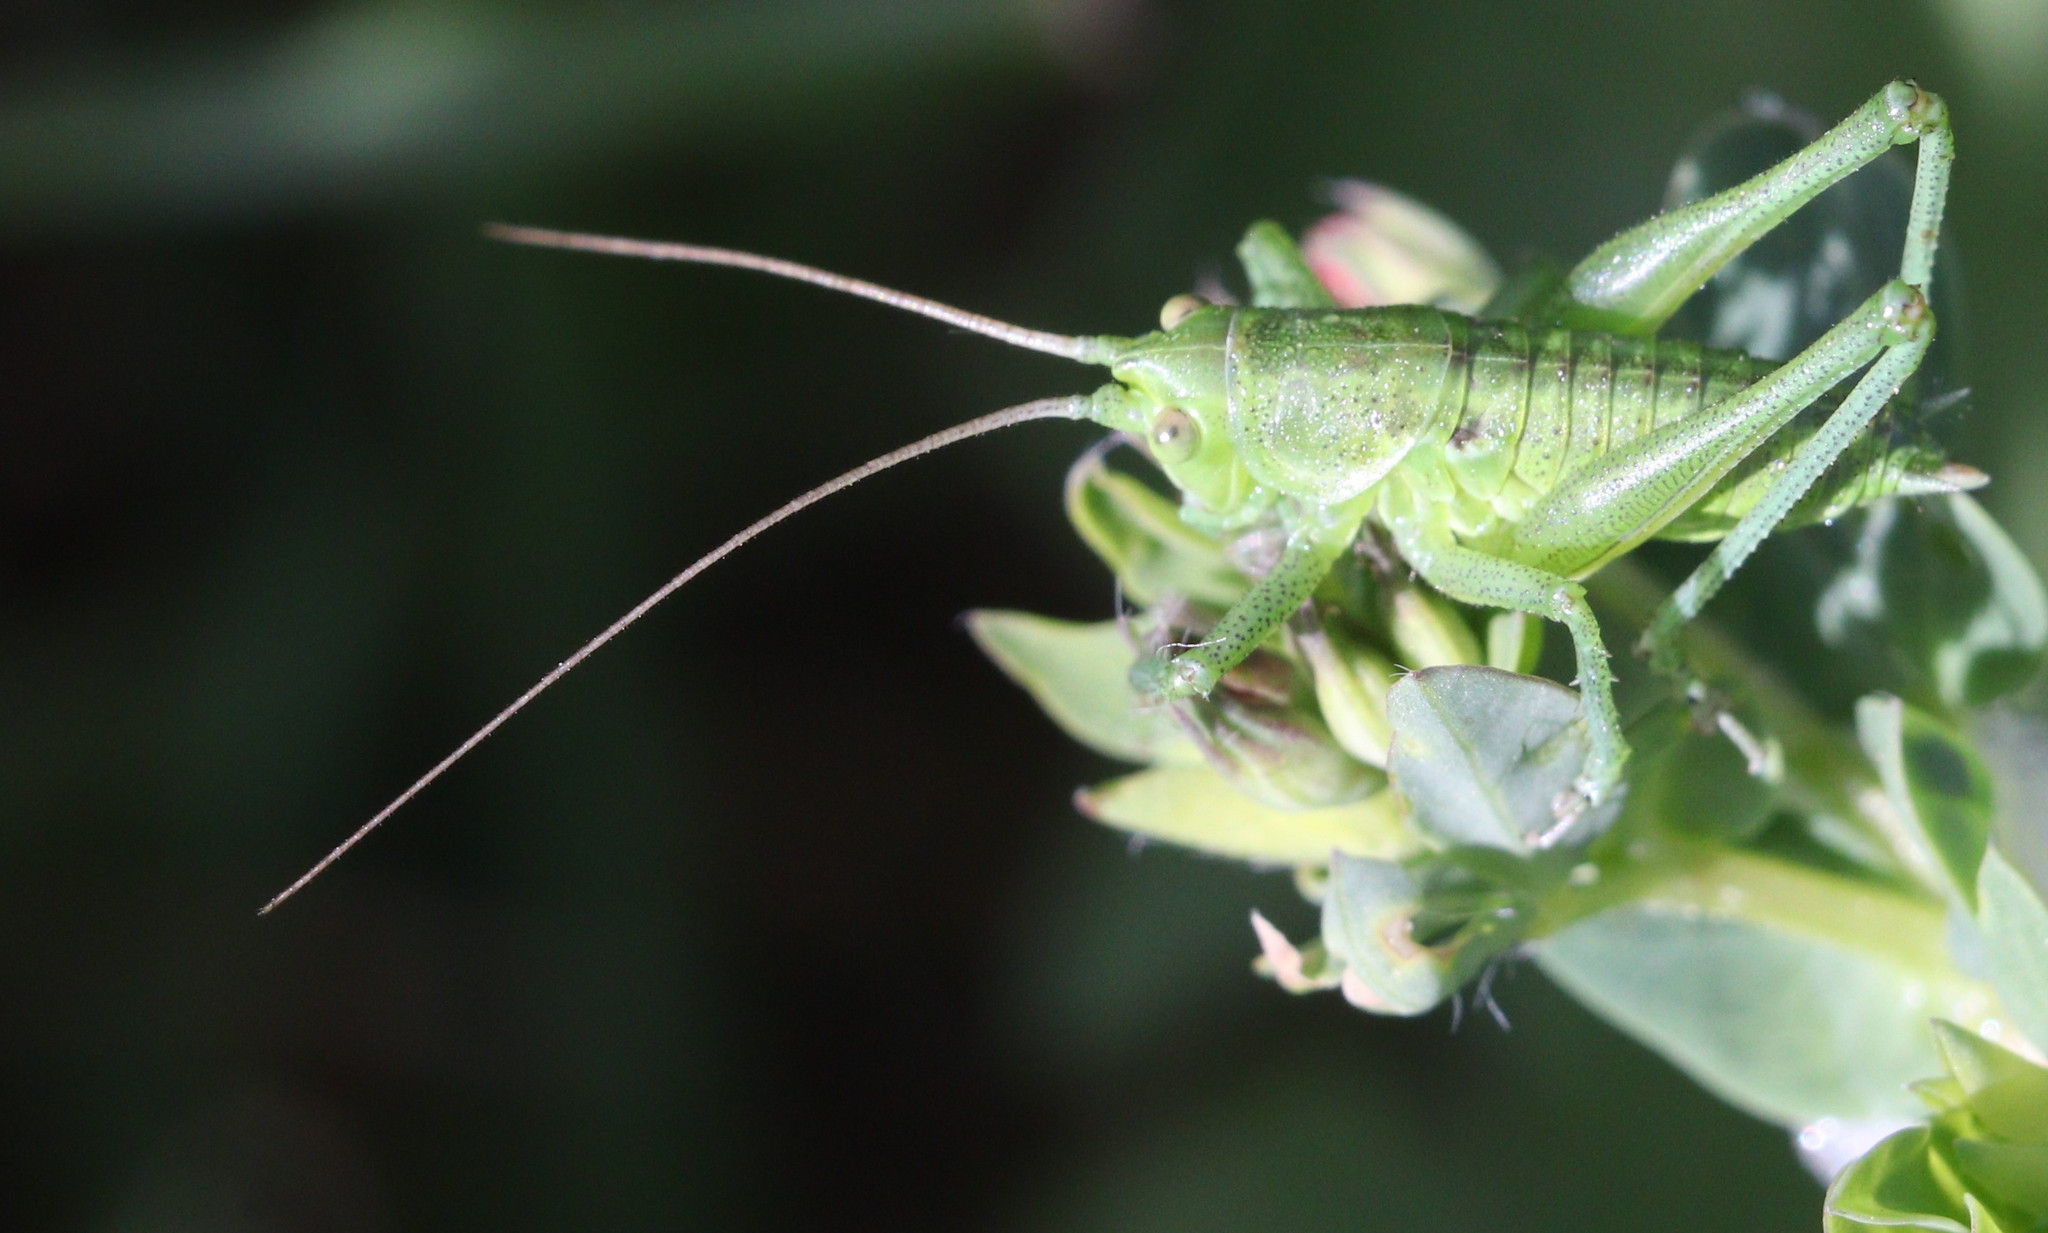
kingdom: Animalia
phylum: Arthropoda
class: Insecta
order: Orthoptera
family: Tettigoniidae
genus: Tettigonia
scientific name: Tettigonia viridissima
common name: Great green bush-cricket
